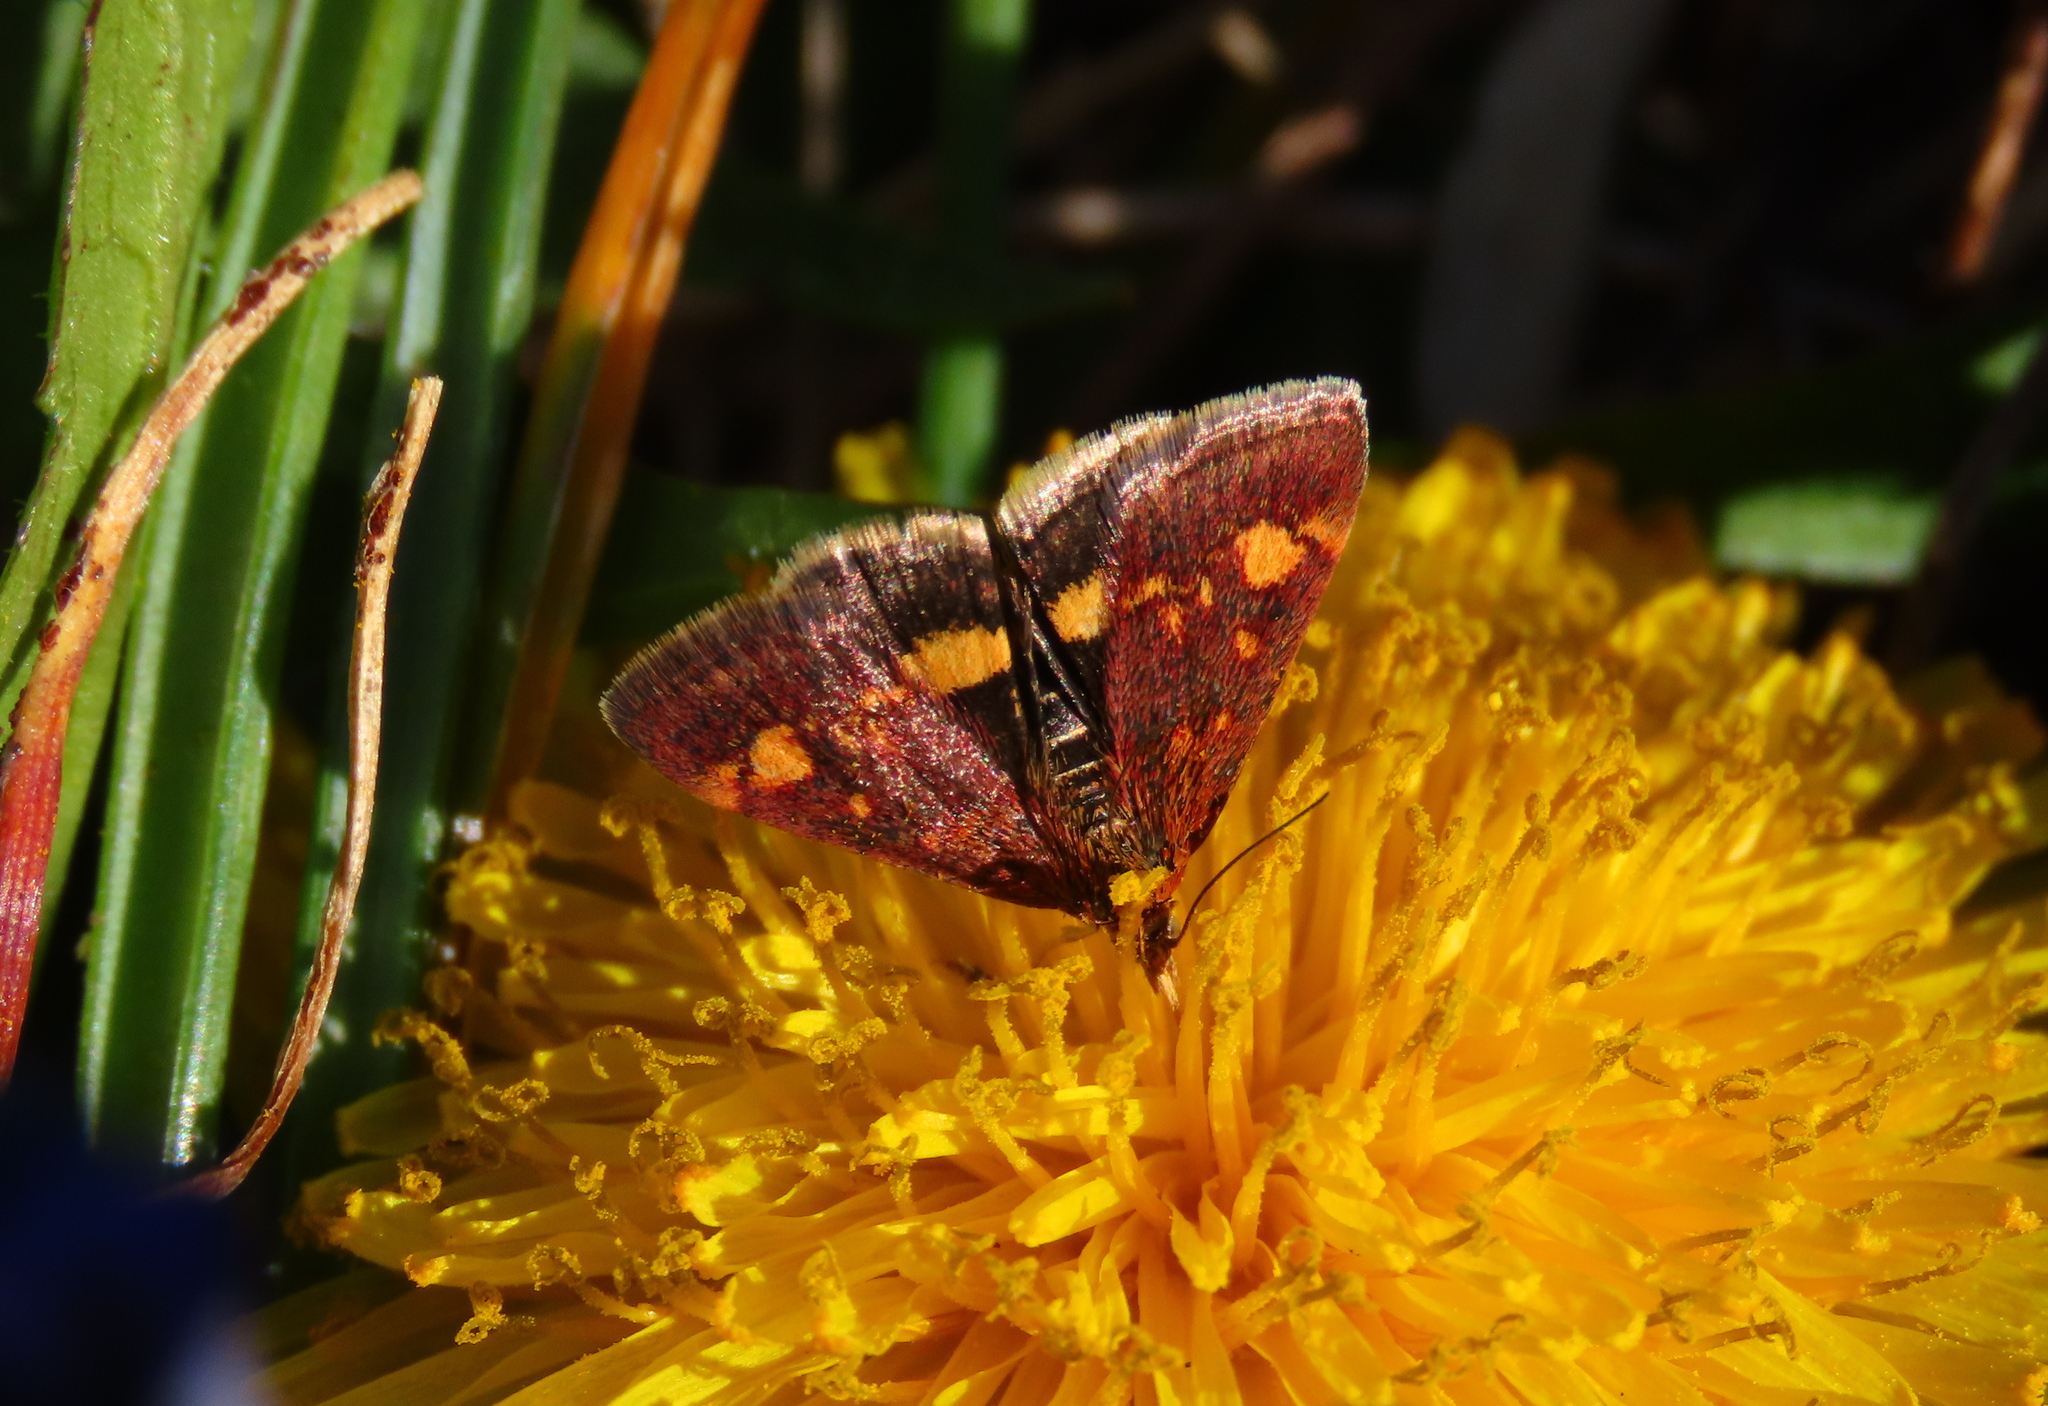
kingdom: Animalia
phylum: Arthropoda
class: Insecta
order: Lepidoptera
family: Crambidae
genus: Pyrausta
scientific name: Pyrausta aurata
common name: Small purple & gold
